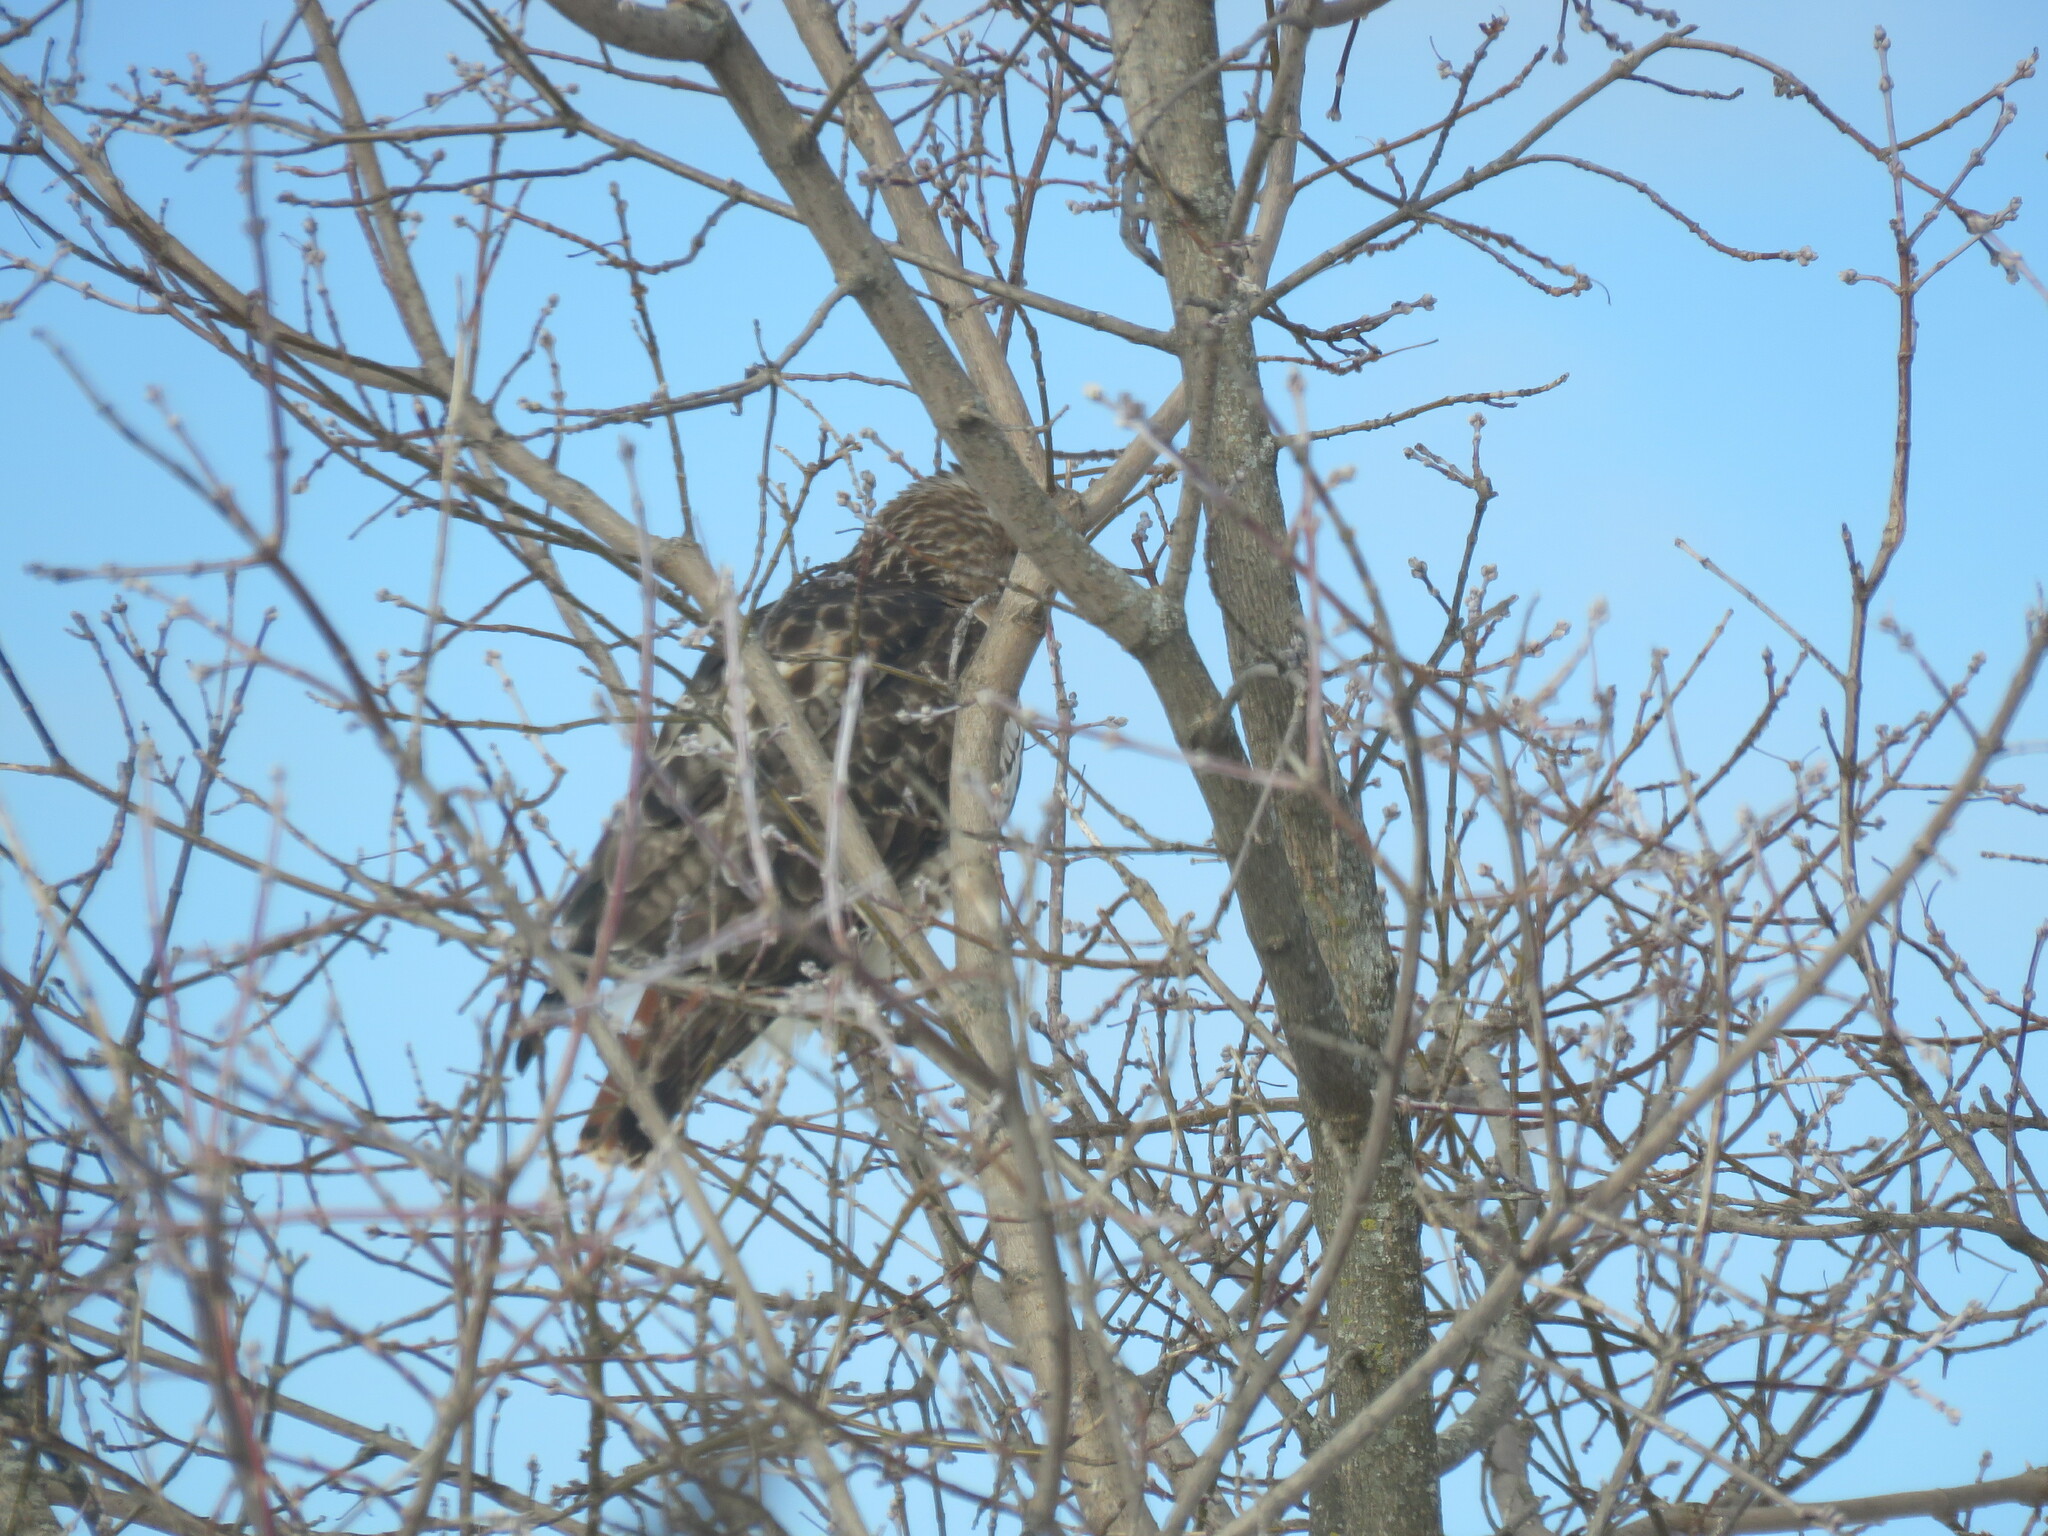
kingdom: Animalia
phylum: Chordata
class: Aves
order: Accipitriformes
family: Accipitridae
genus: Buteo
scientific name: Buteo jamaicensis
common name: Red-tailed hawk
